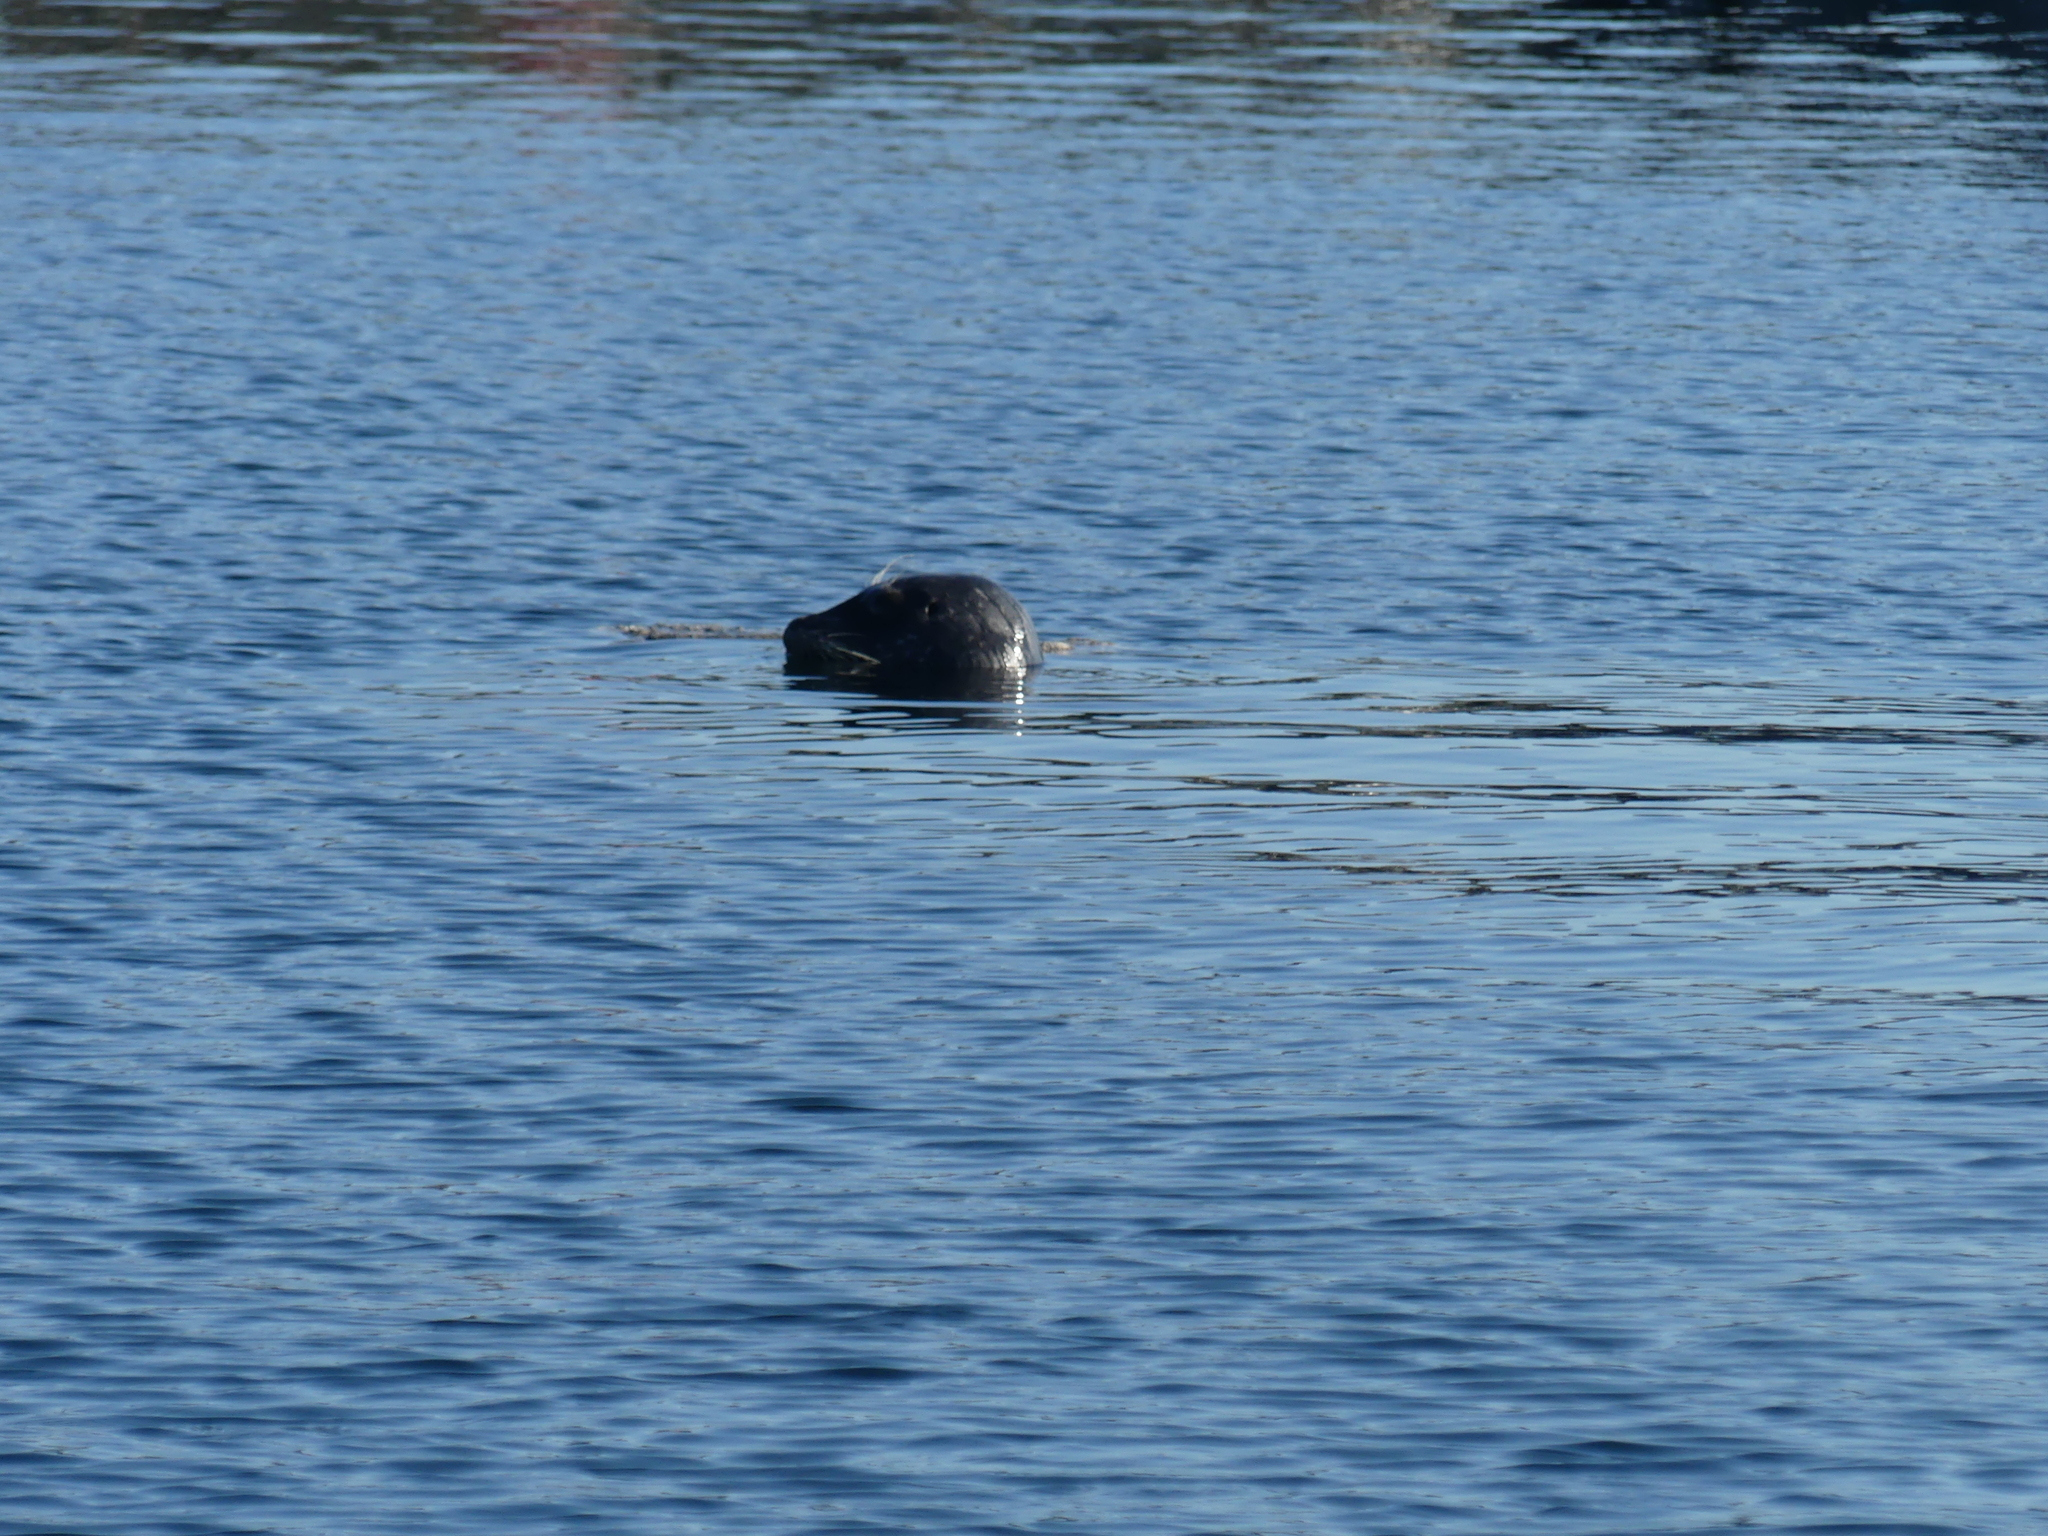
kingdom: Animalia
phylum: Chordata
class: Mammalia
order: Carnivora
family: Phocidae
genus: Phoca
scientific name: Phoca vitulina
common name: Harbor seal
